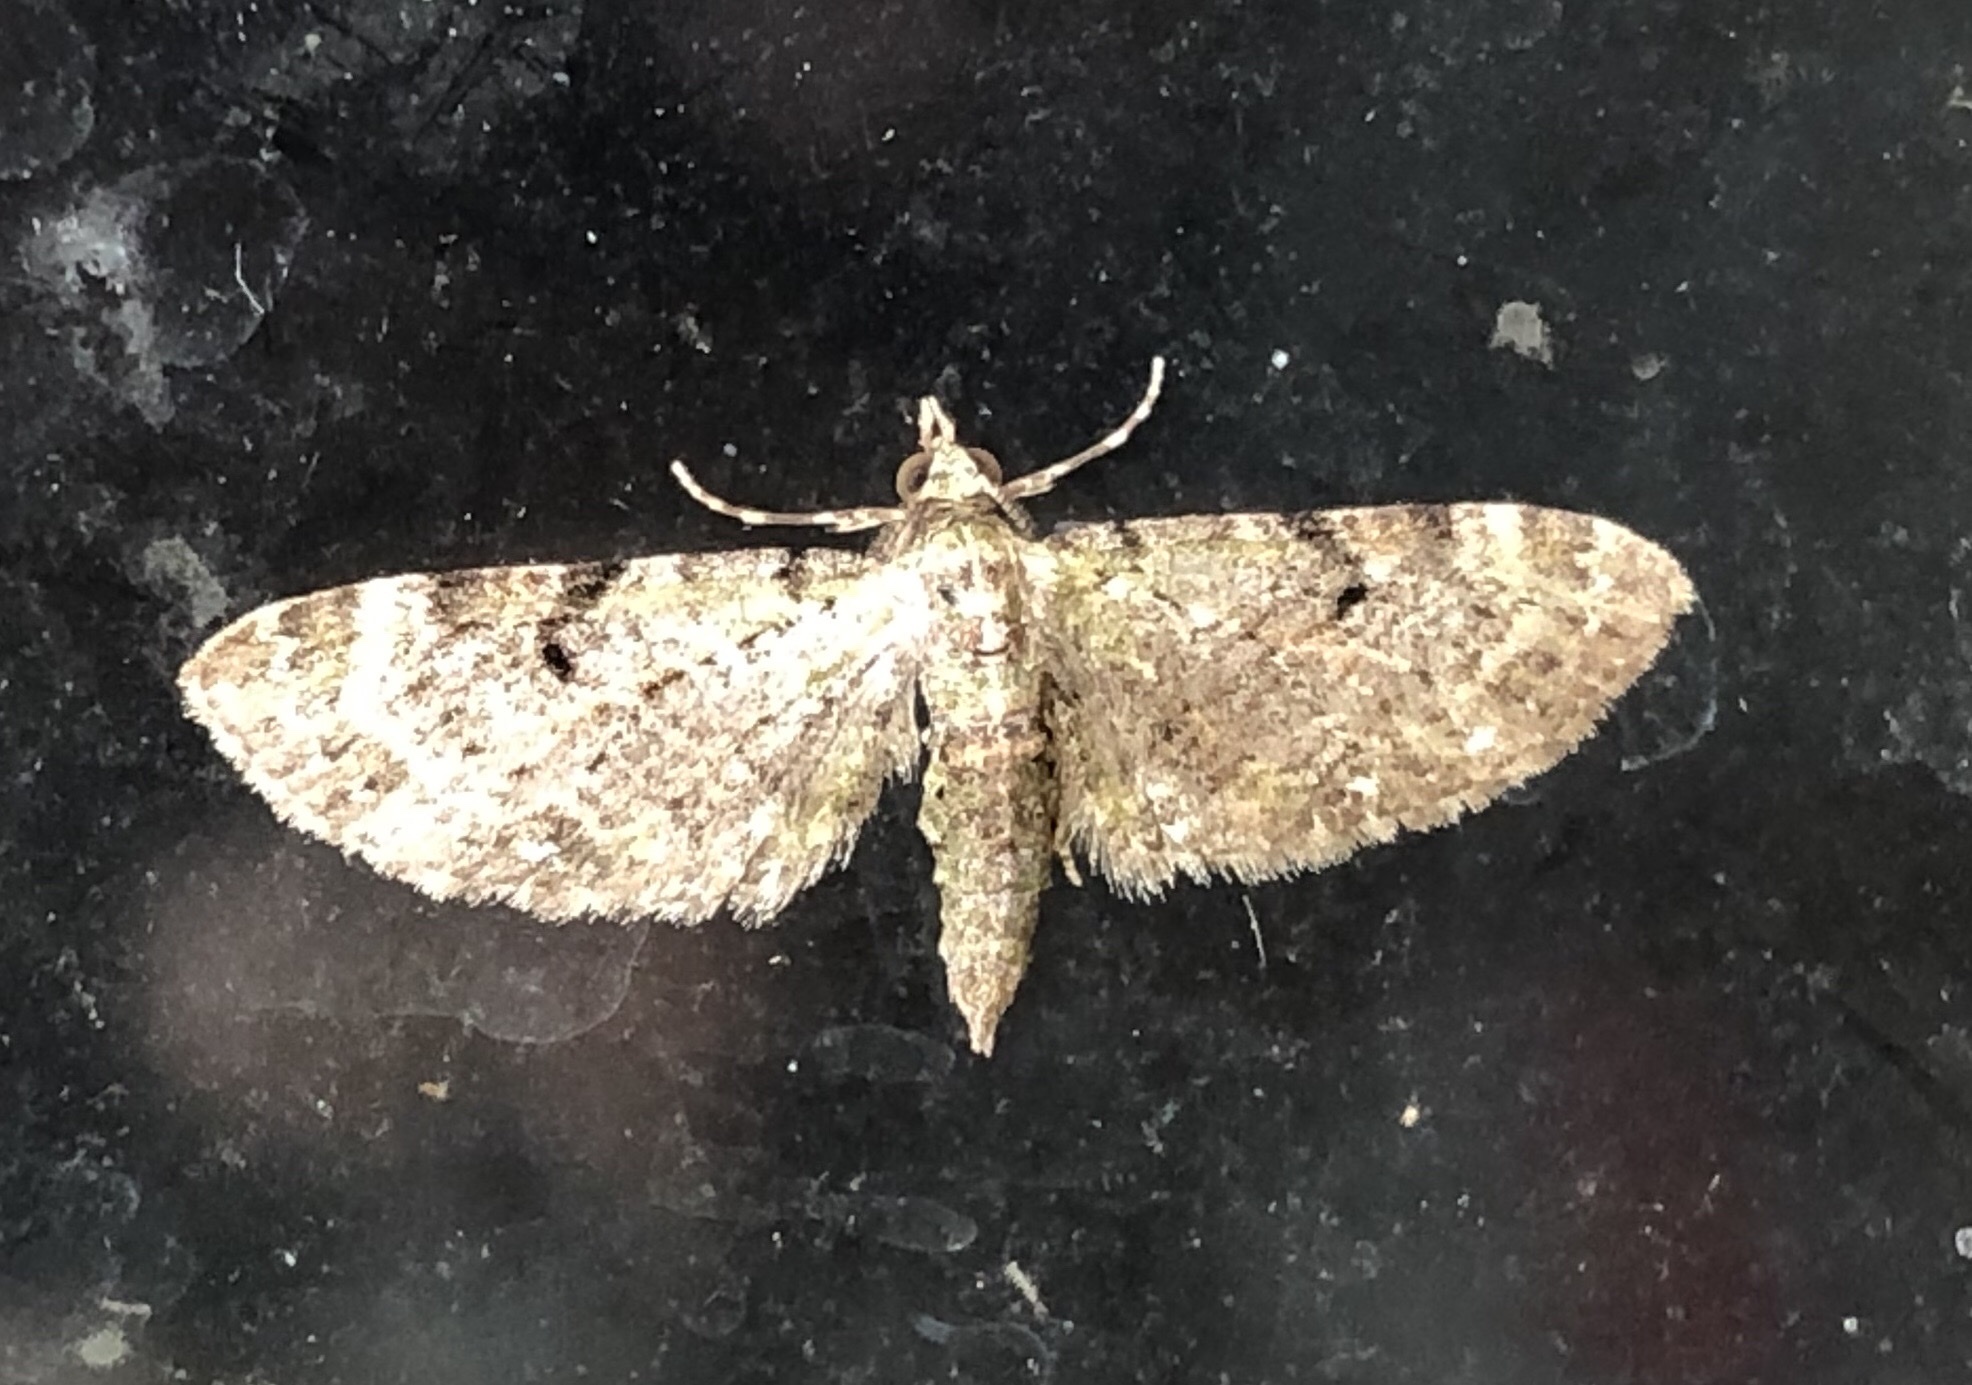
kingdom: Animalia
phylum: Arthropoda
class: Insecta
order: Lepidoptera
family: Geometridae
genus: Eupithecia
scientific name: Eupithecia miserulata
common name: Common eupithecia
